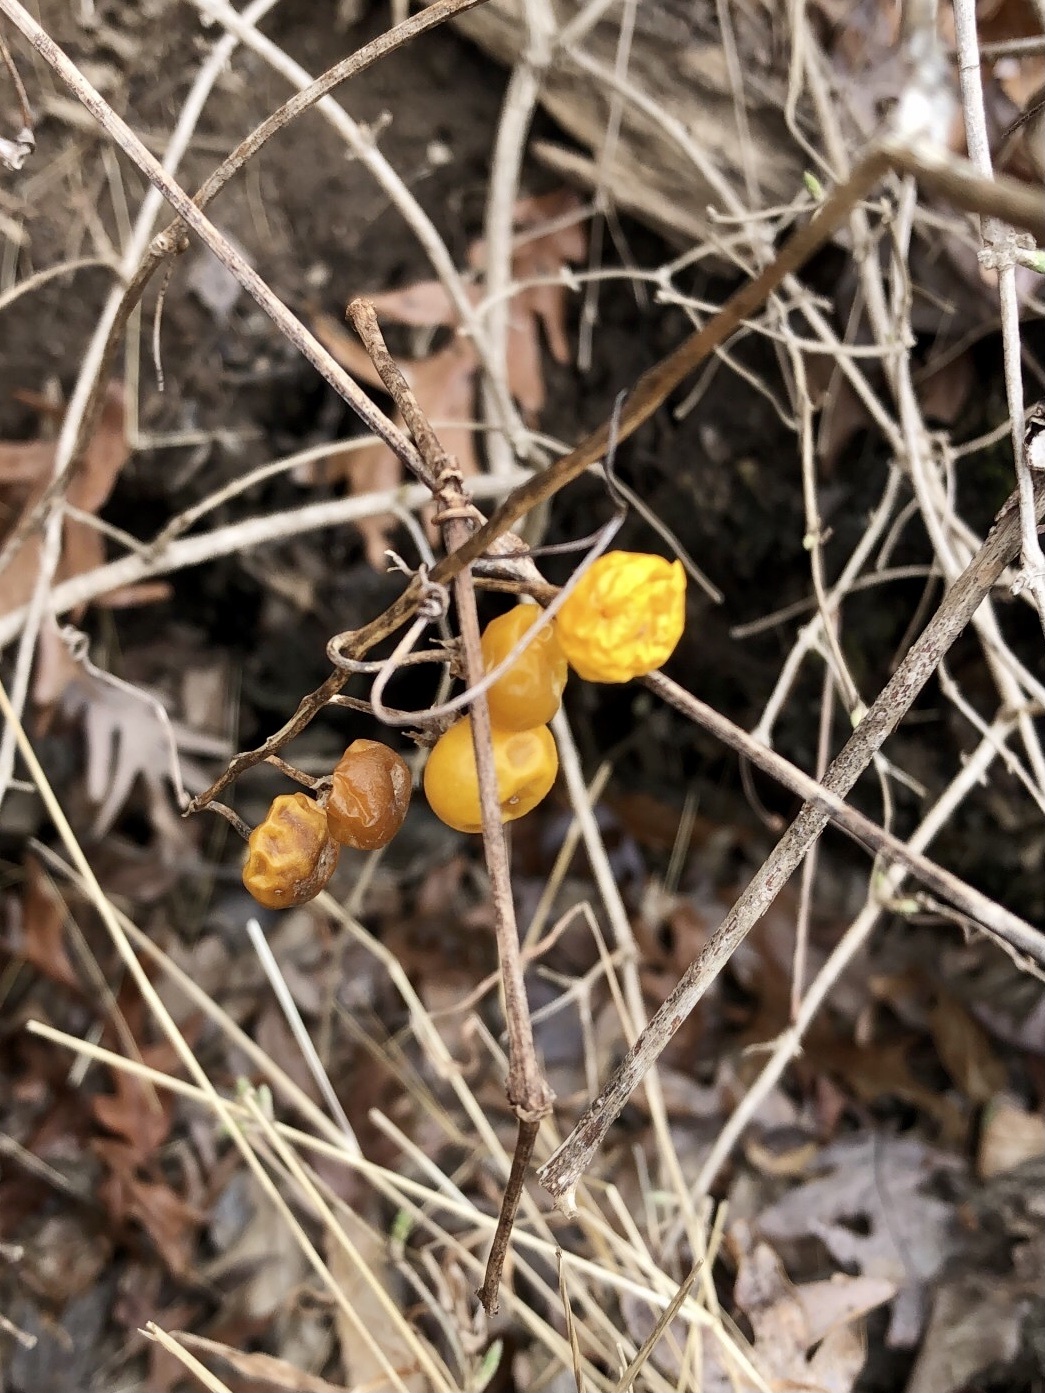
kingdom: Plantae
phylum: Tracheophyta
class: Magnoliopsida
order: Solanales
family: Solanaceae
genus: Solanum
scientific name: Solanum carolinense
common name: Horse-nettle
